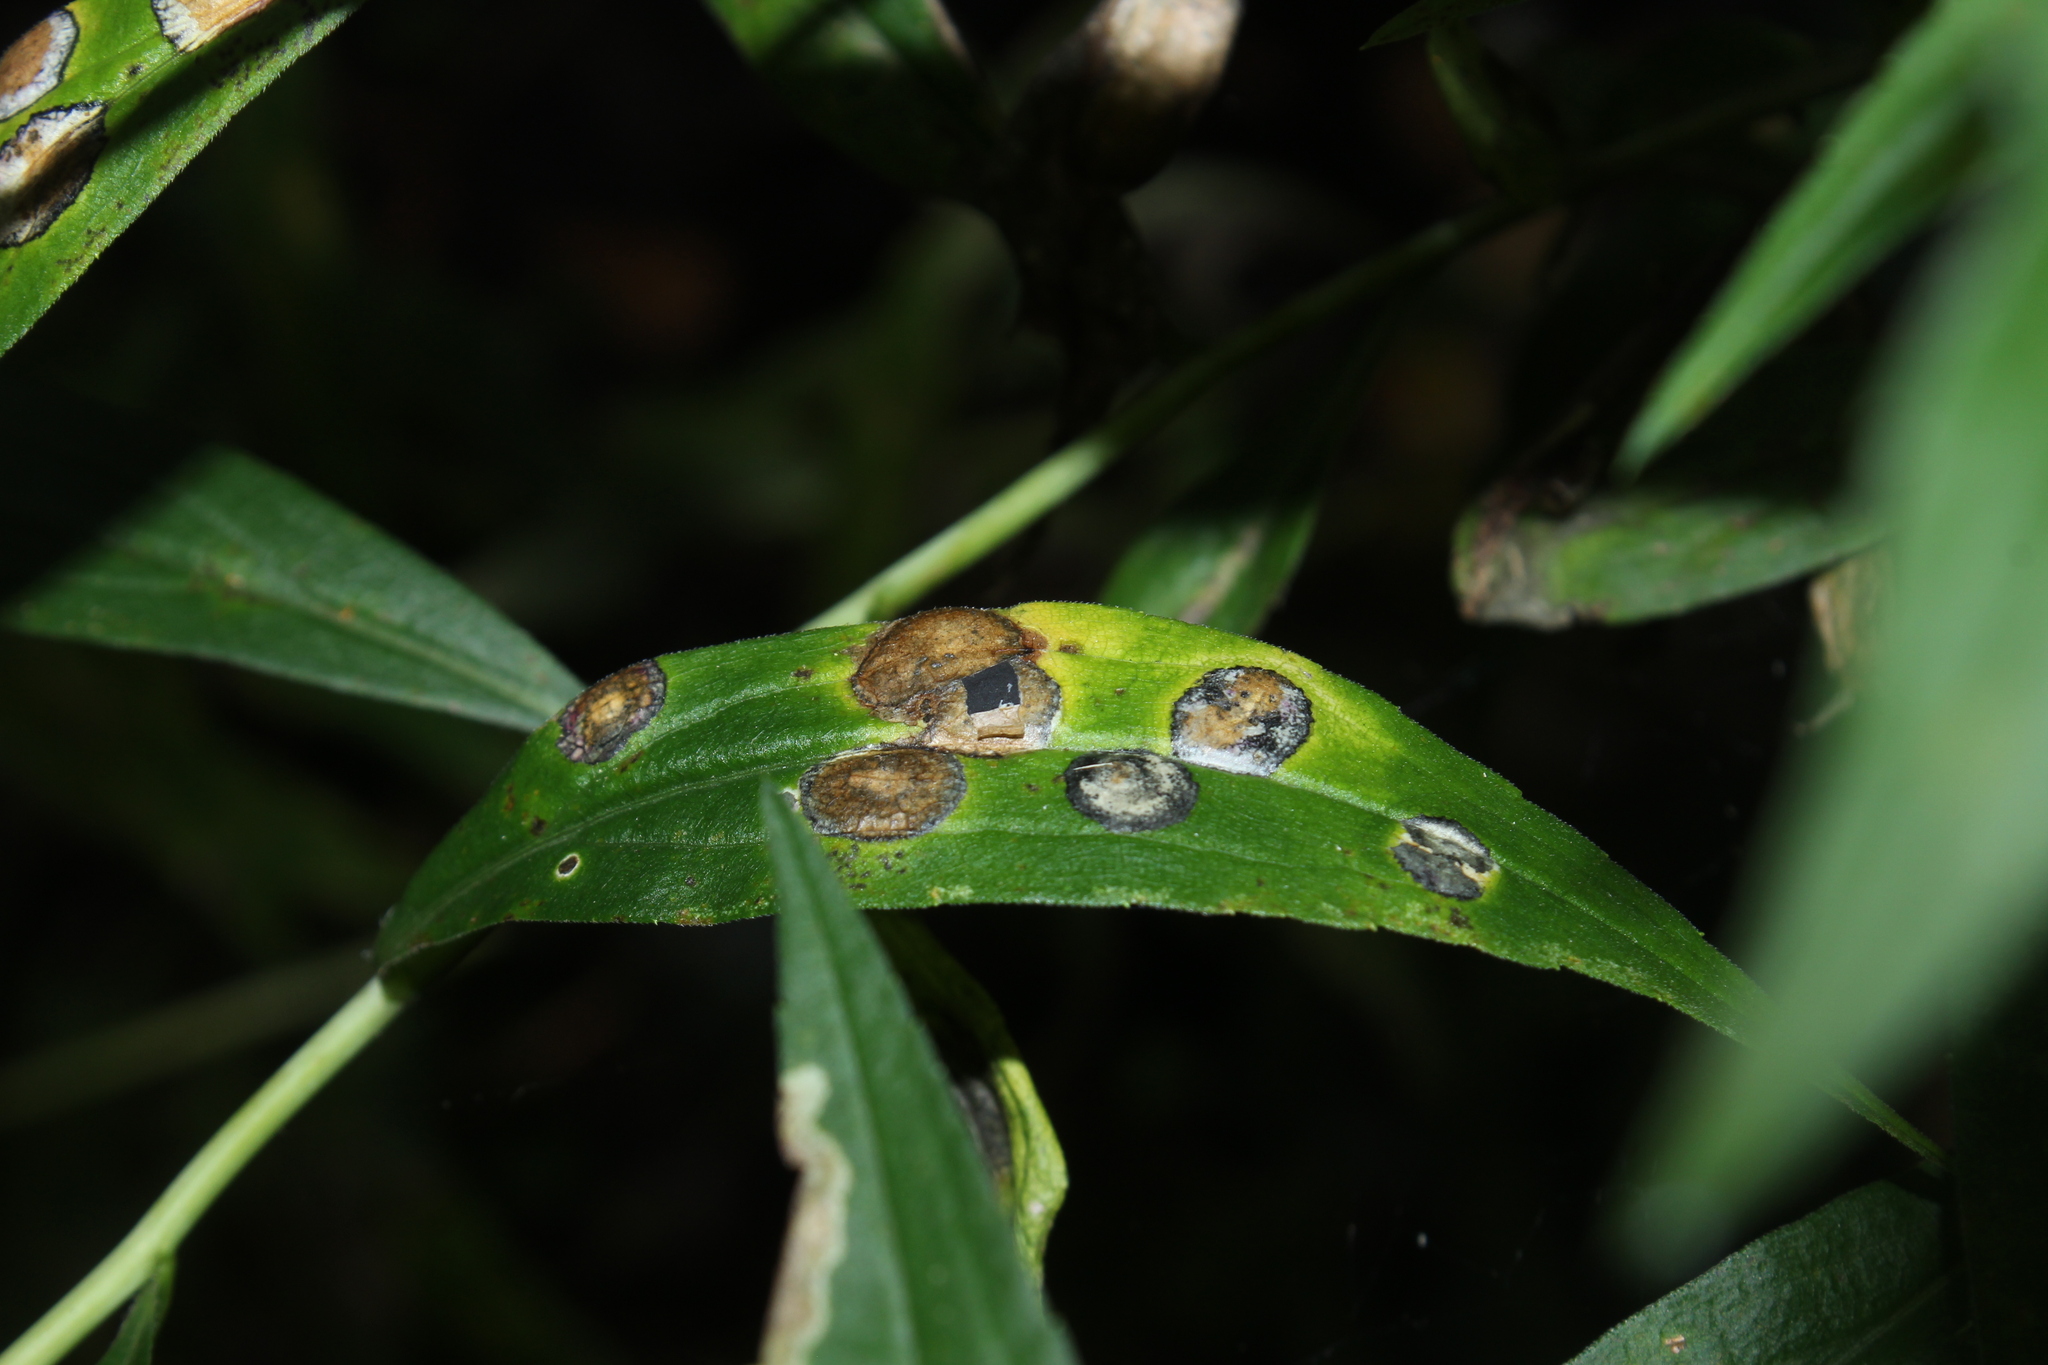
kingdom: Animalia
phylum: Arthropoda
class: Insecta
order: Diptera
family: Cecidomyiidae
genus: Asteromyia
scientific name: Asteromyia carbonifera
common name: Carbonifera goldenrod gall midge
